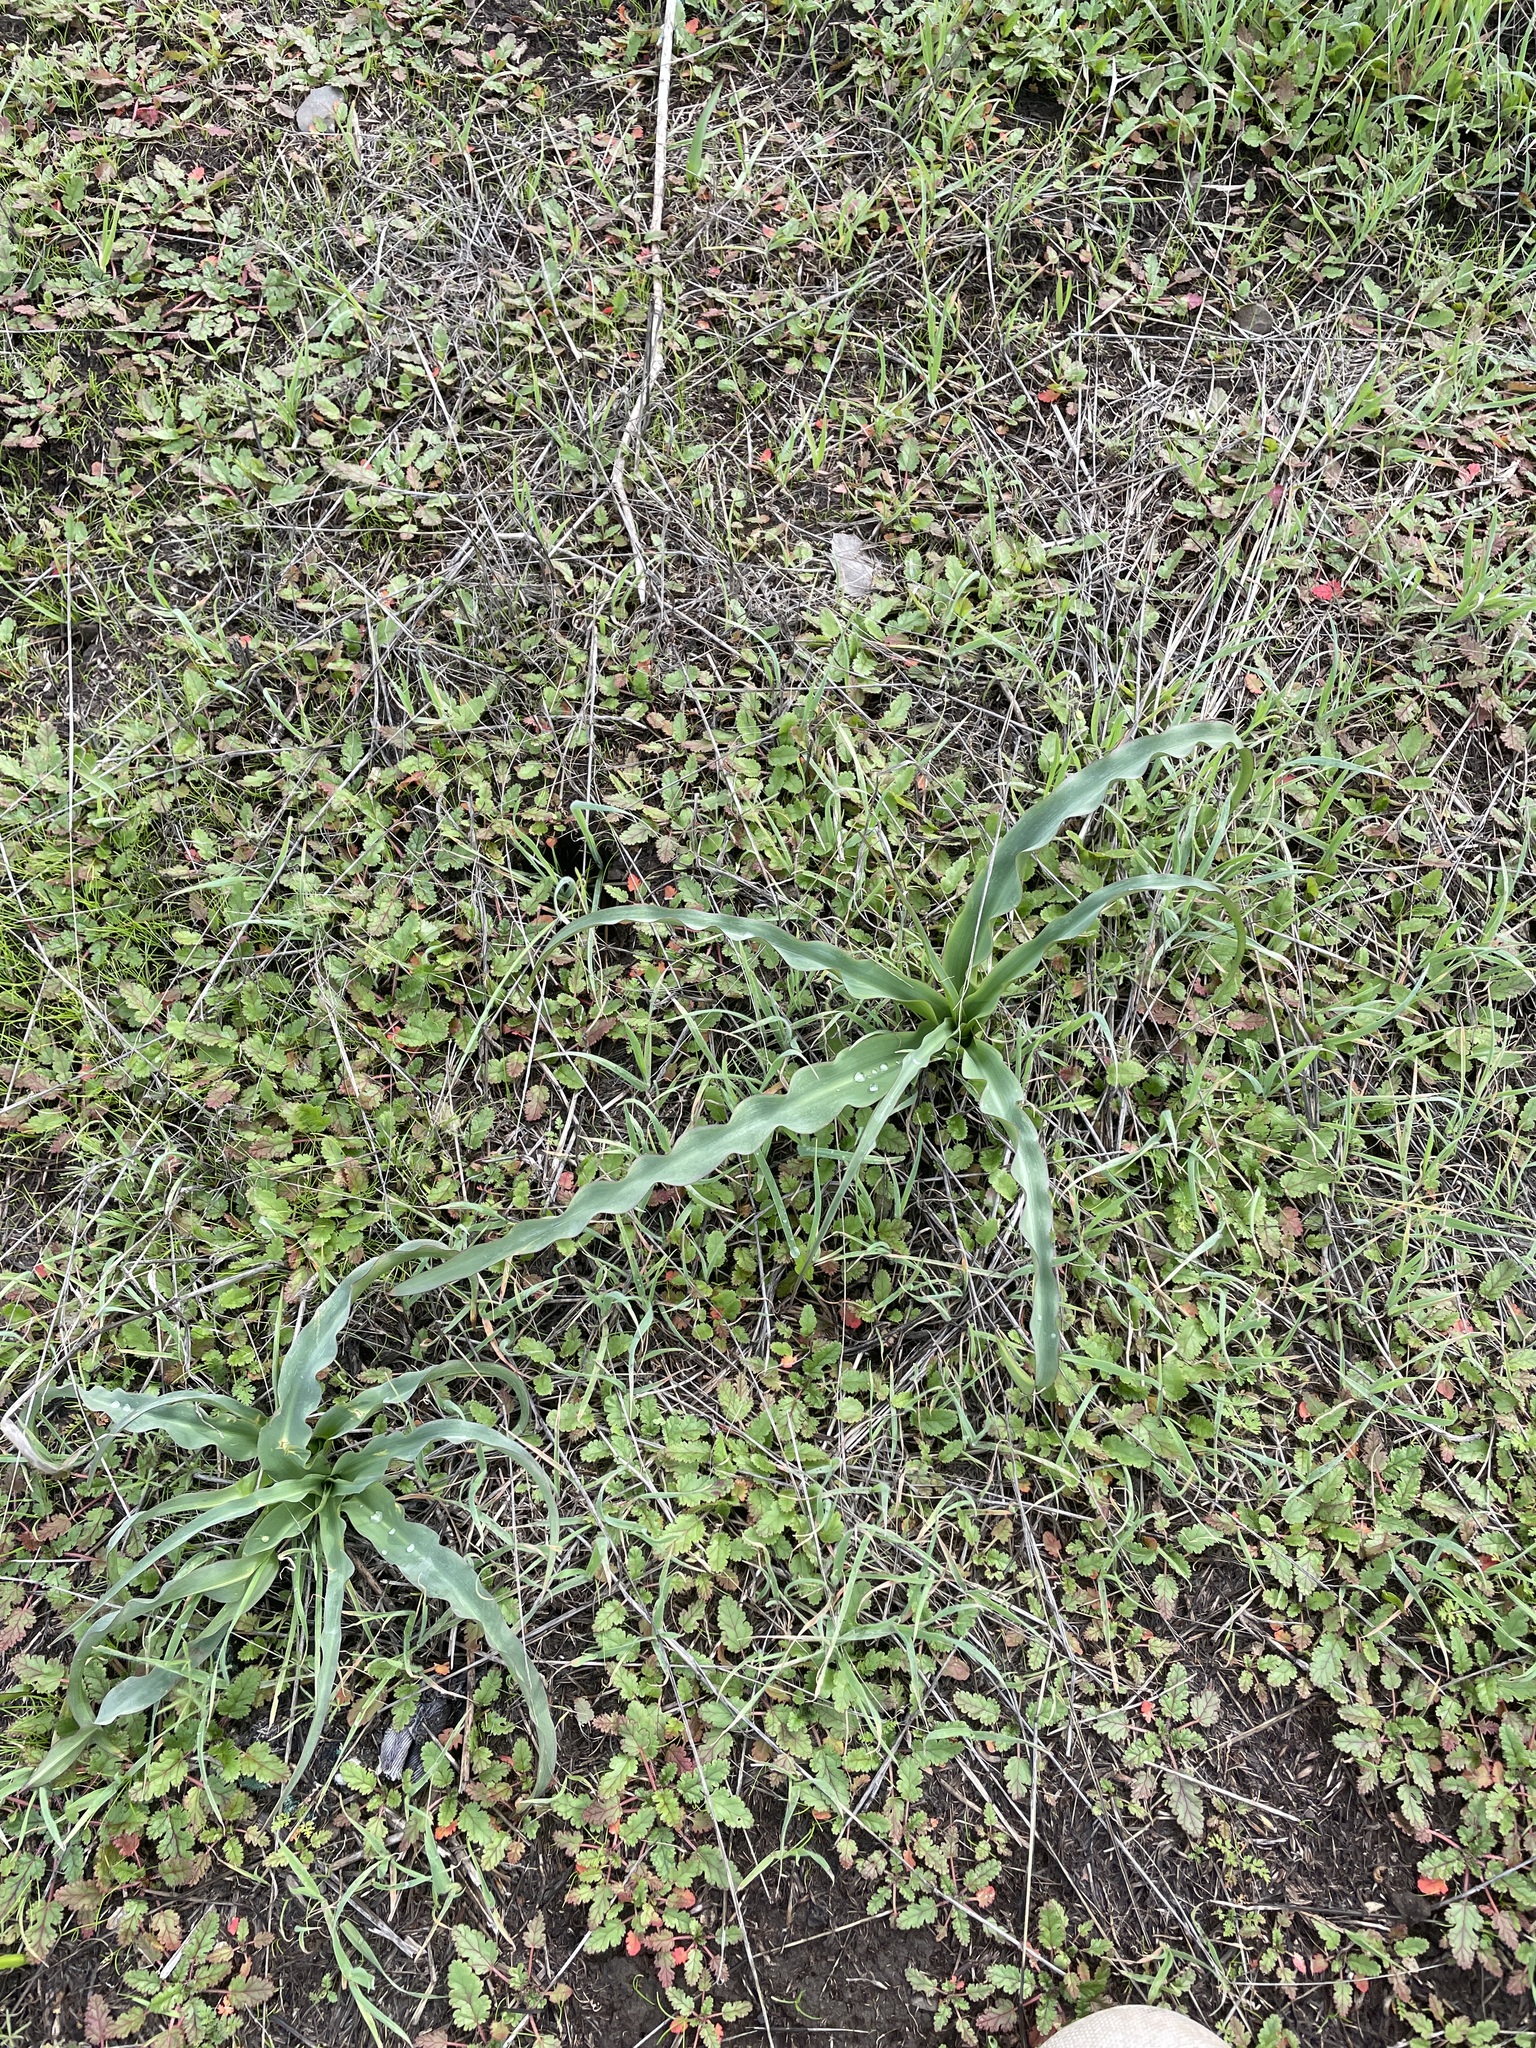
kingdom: Plantae
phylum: Tracheophyta
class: Liliopsida
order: Asparagales
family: Asparagaceae
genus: Chlorogalum
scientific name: Chlorogalum pomeridianum
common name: Amole
